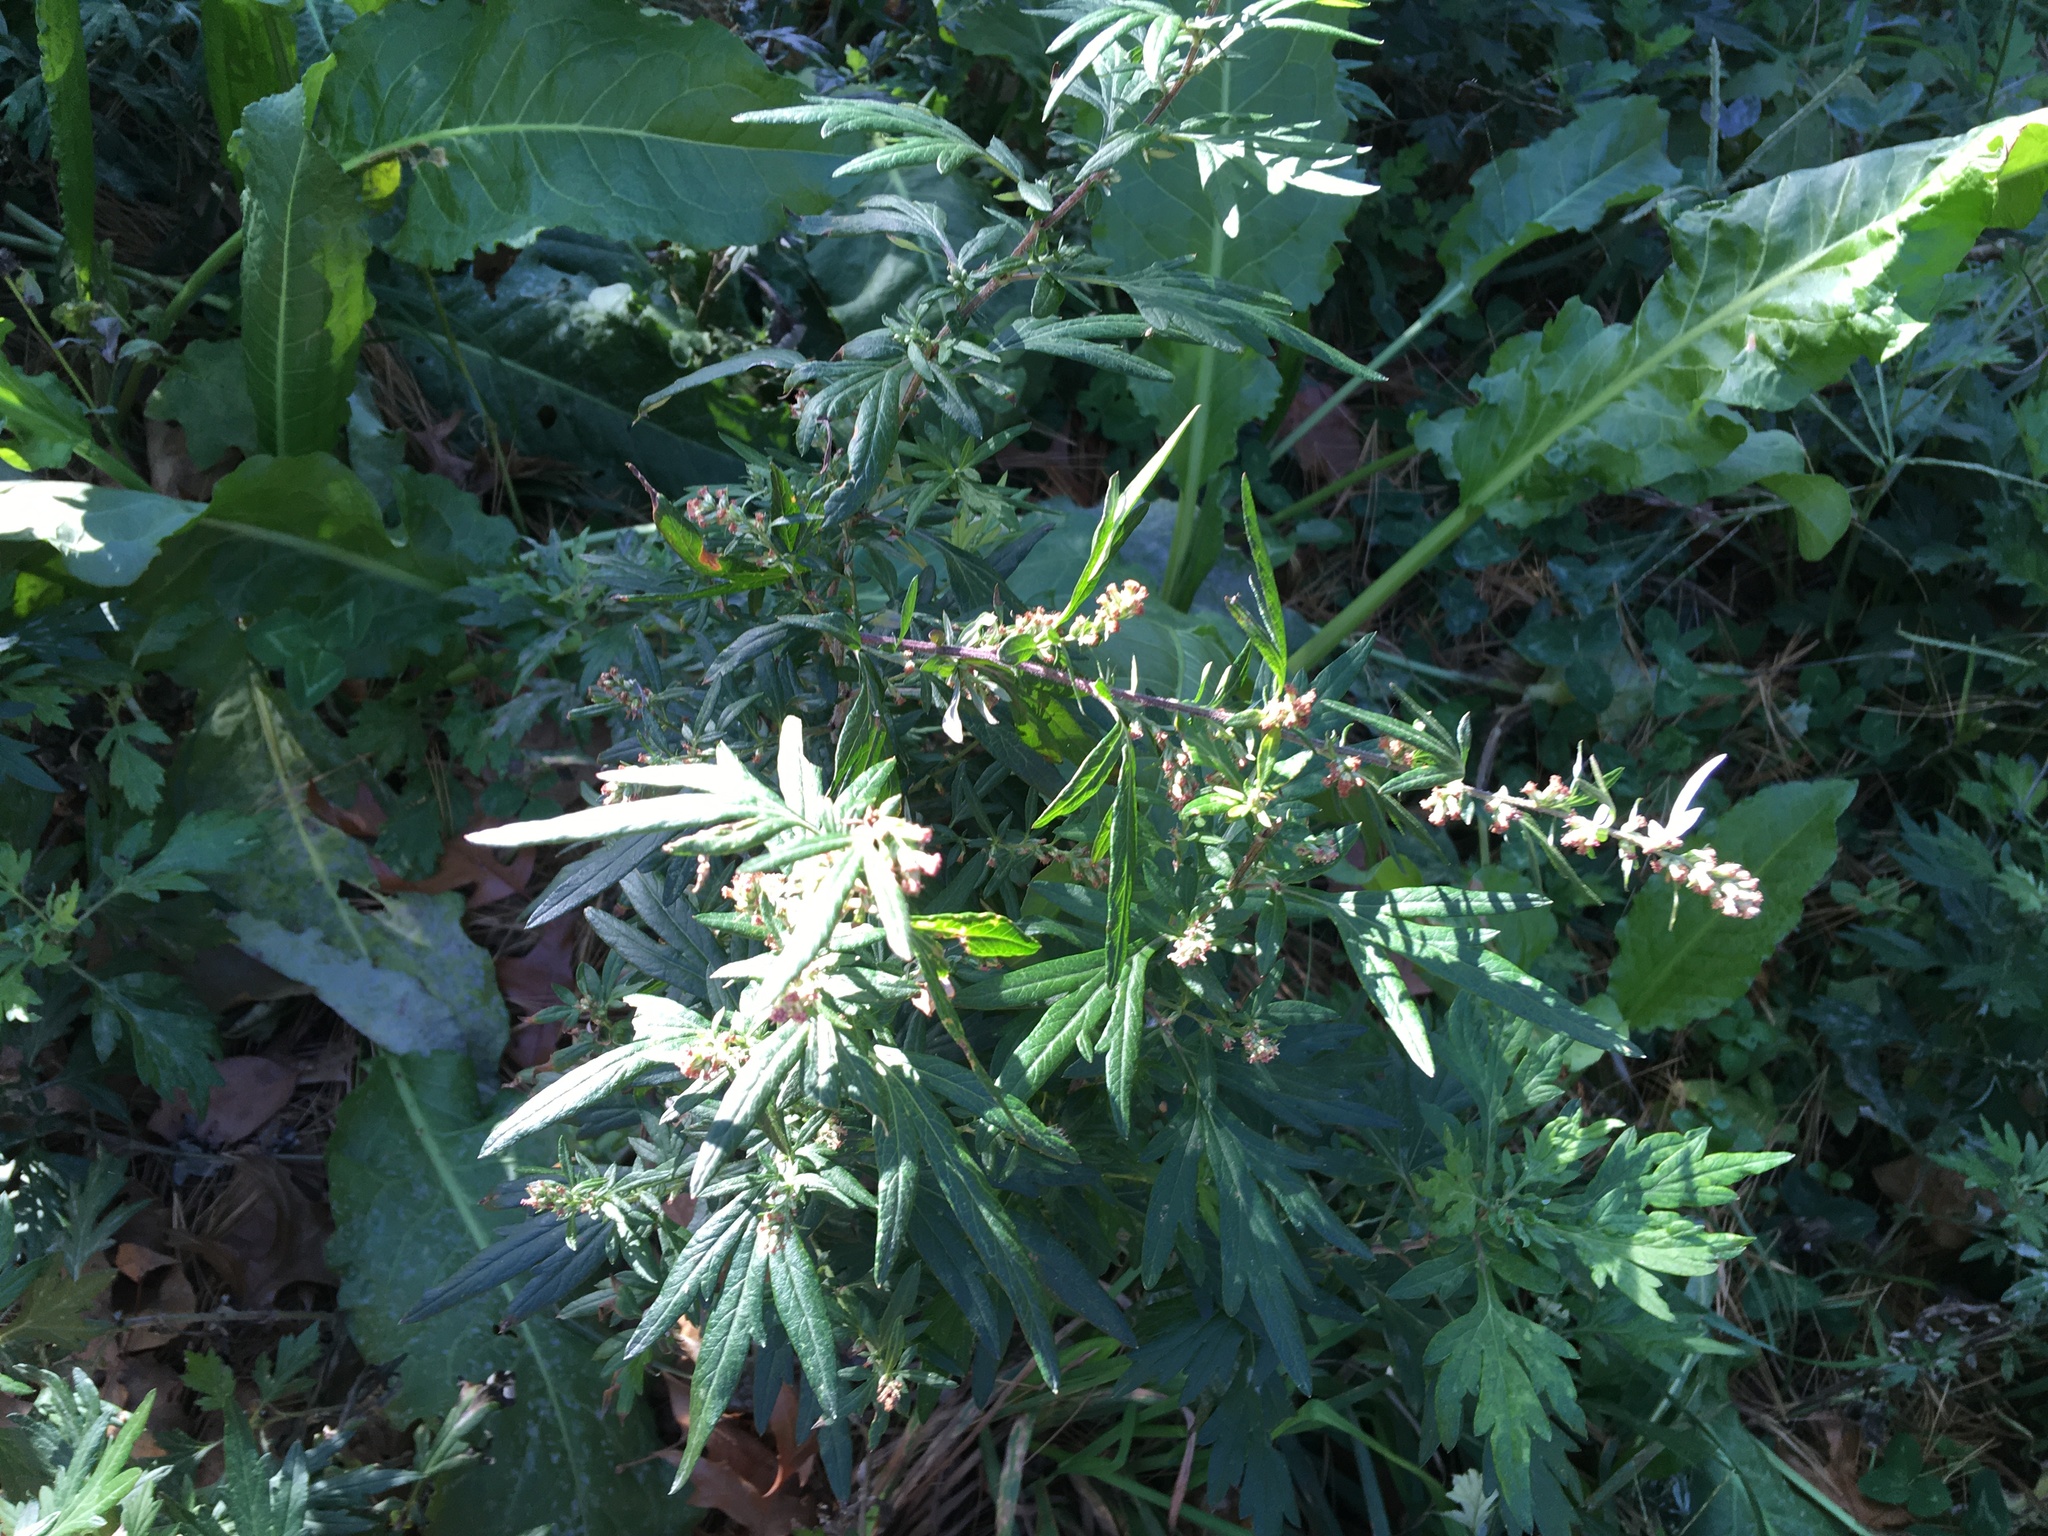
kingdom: Plantae
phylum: Tracheophyta
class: Magnoliopsida
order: Asterales
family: Asteraceae
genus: Artemisia
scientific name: Artemisia vulgaris
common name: Mugwort
